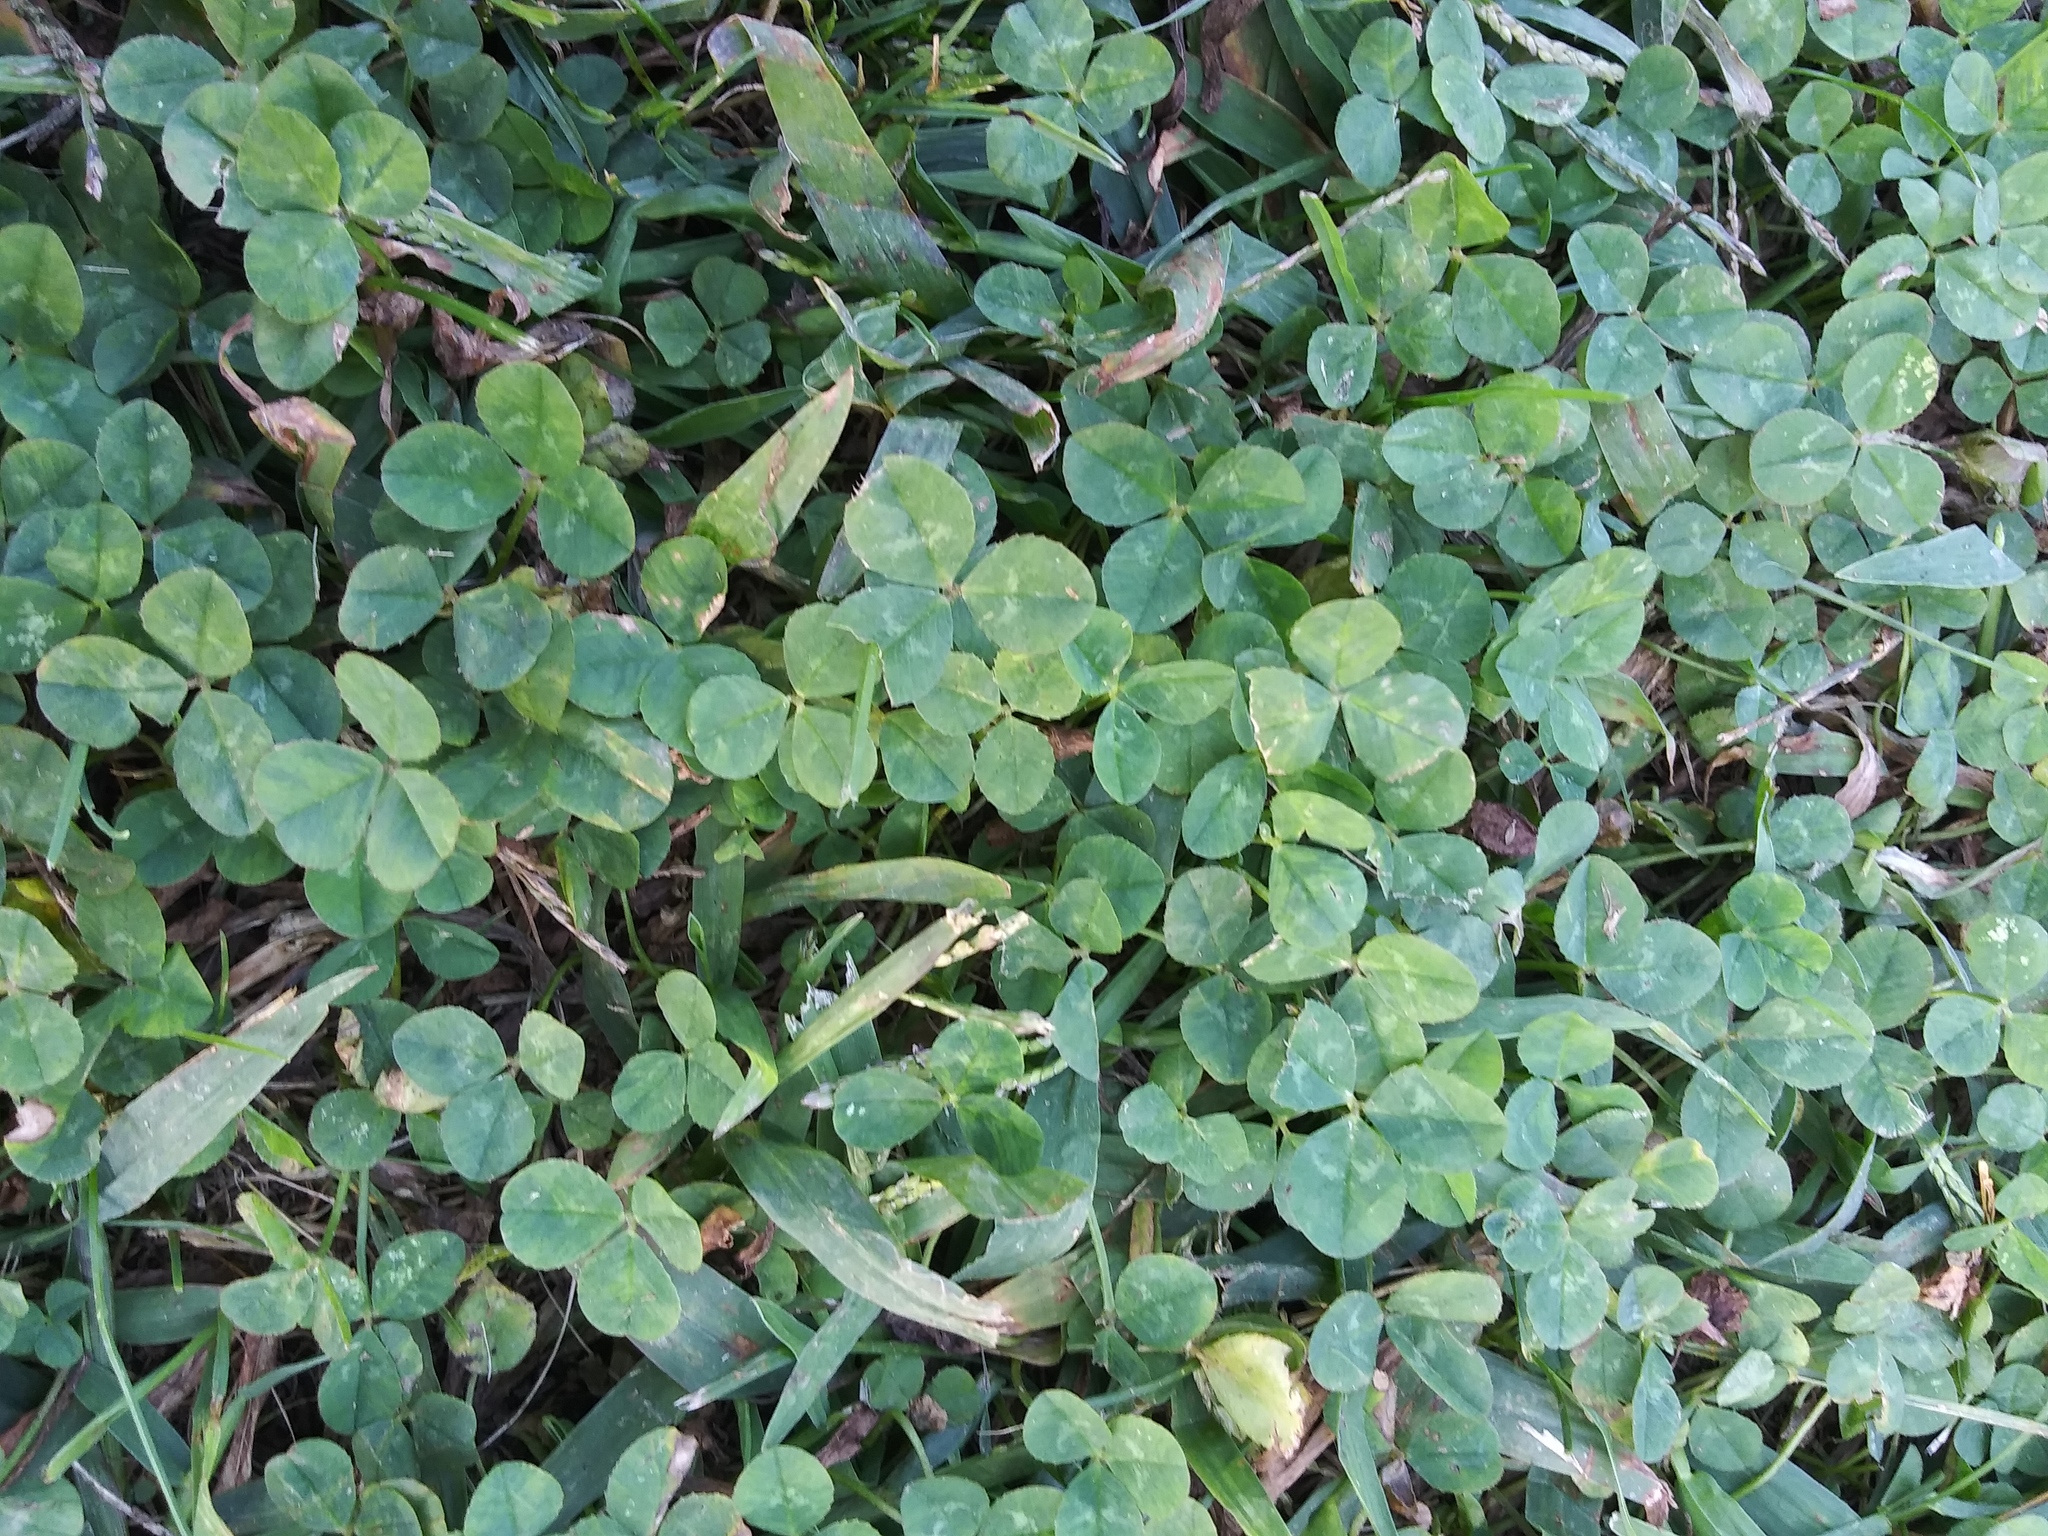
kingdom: Plantae
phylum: Tracheophyta
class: Magnoliopsida
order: Fabales
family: Fabaceae
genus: Trifolium
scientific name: Trifolium repens
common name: White clover
